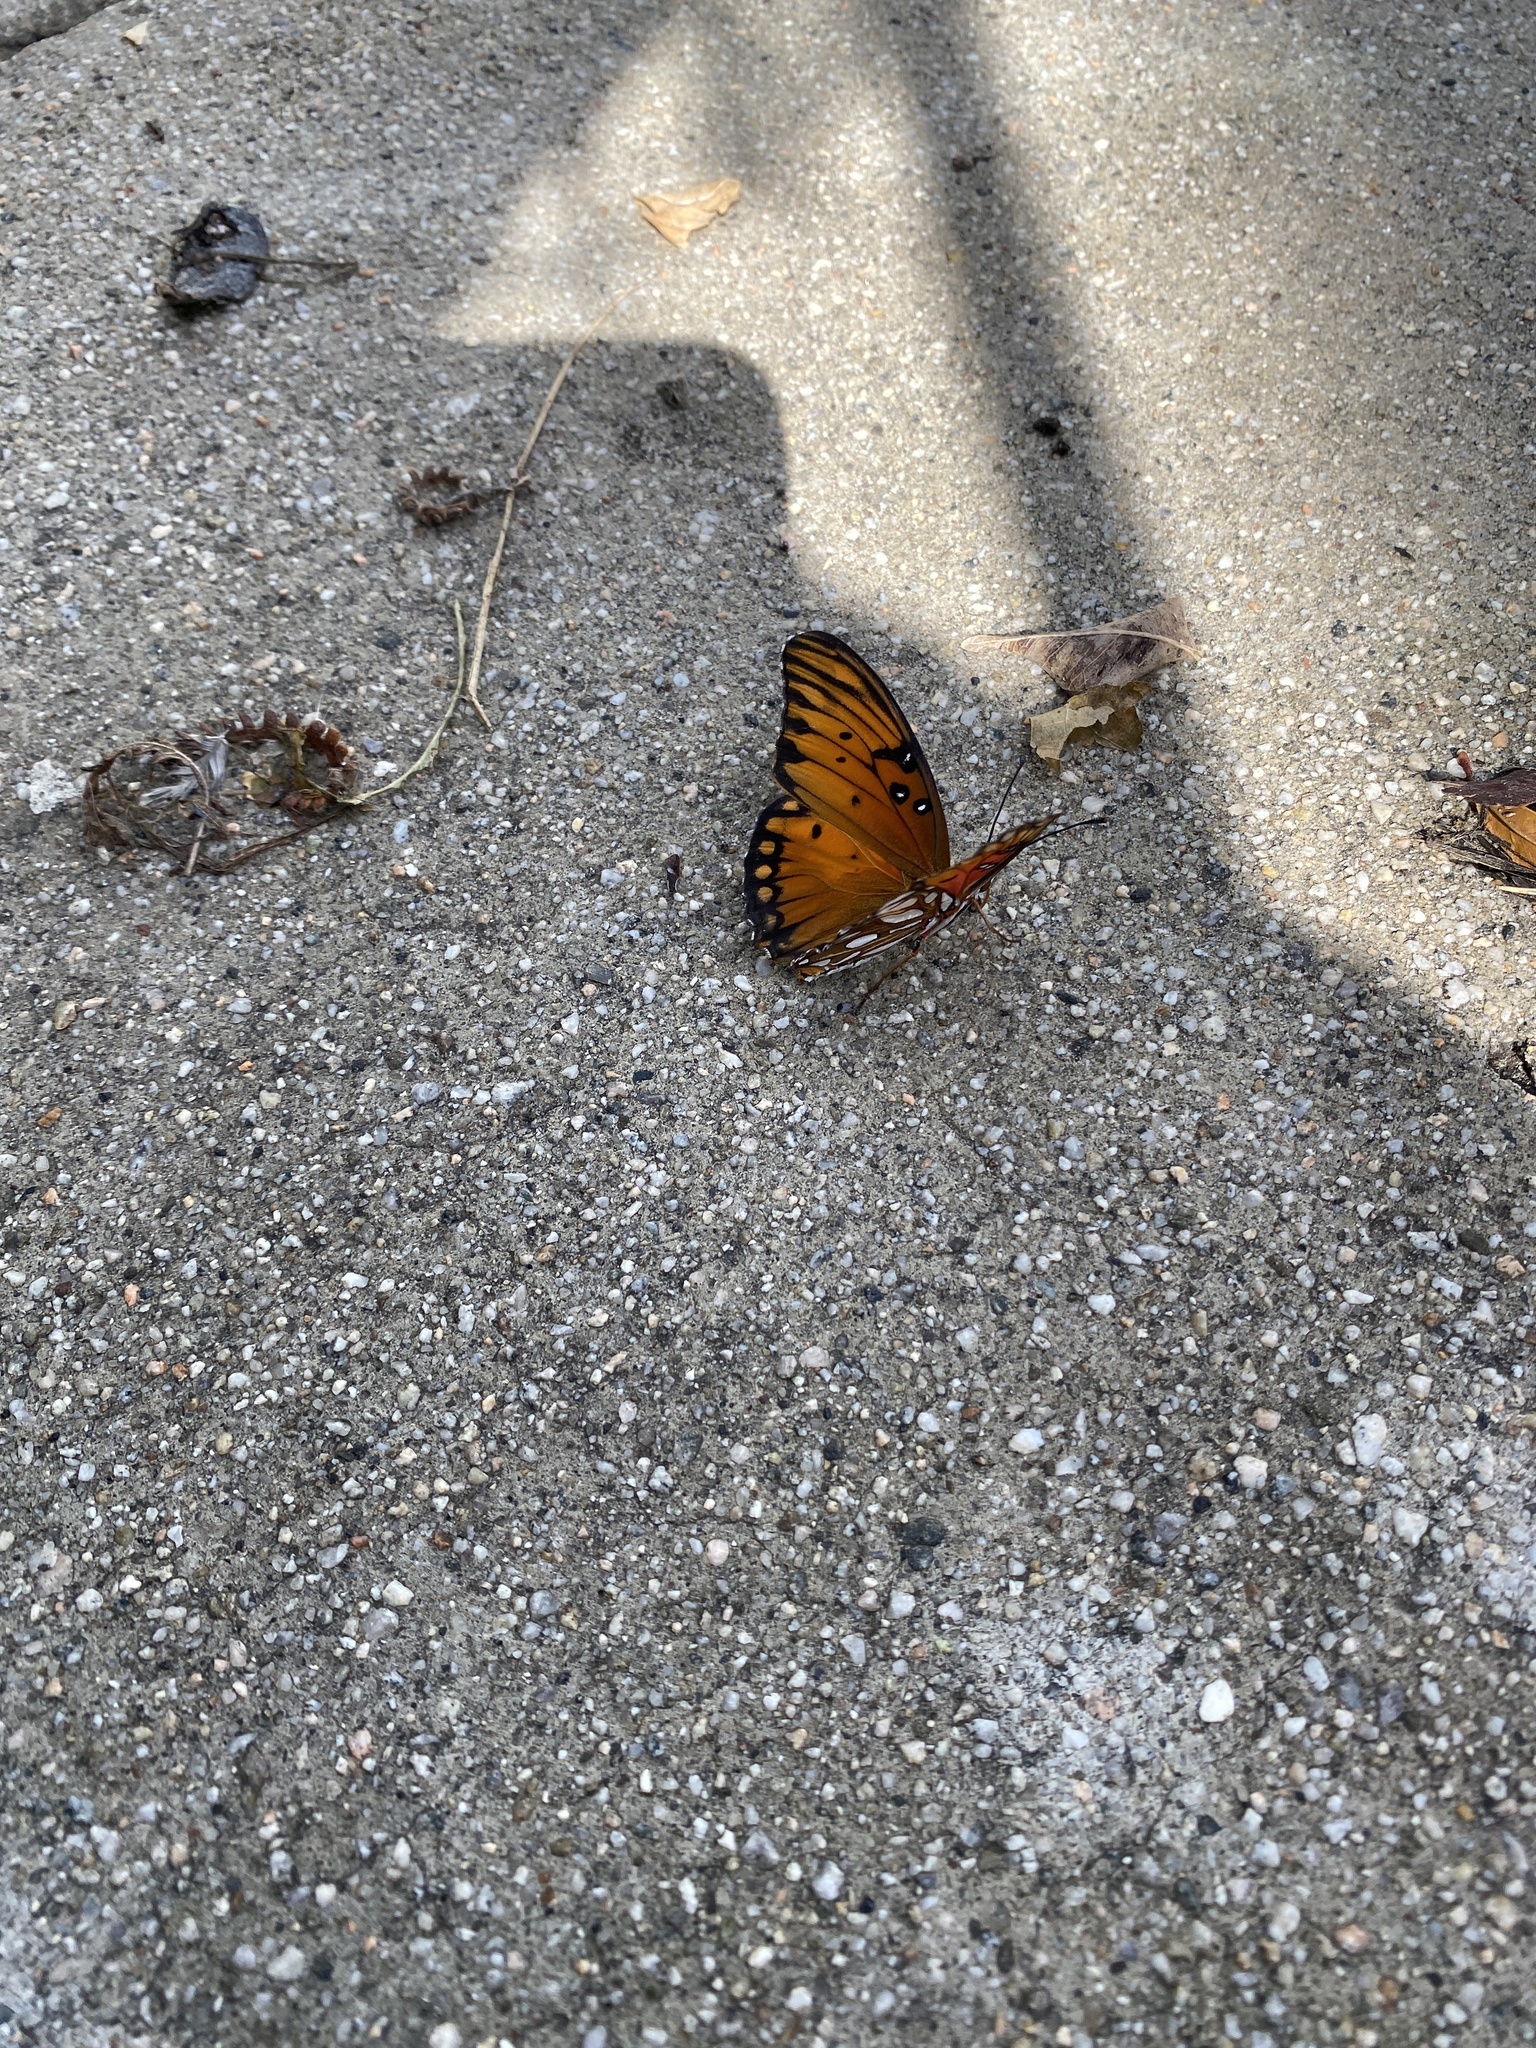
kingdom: Animalia
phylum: Arthropoda
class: Insecta
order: Lepidoptera
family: Nymphalidae
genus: Dione
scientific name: Dione vanillae
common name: Gulf fritillary
